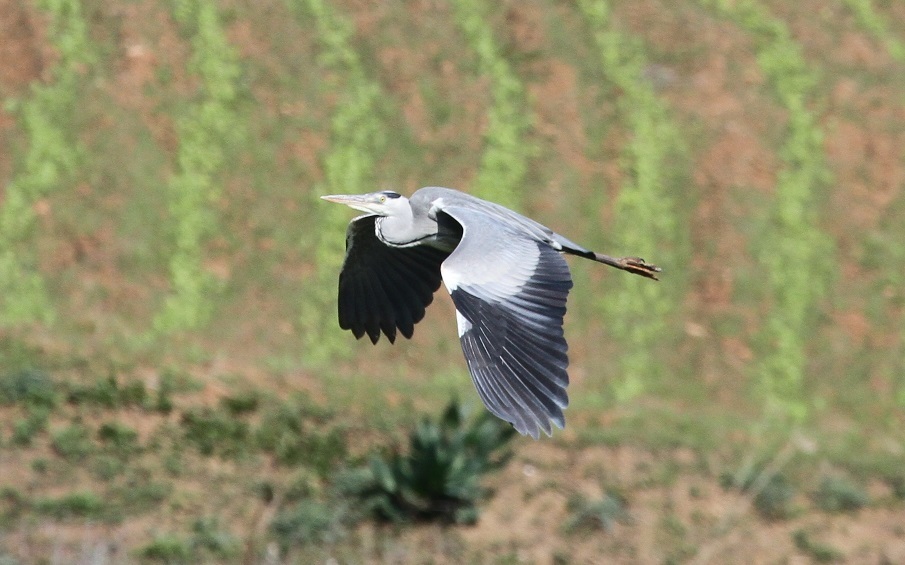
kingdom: Animalia
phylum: Chordata
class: Aves
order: Pelecaniformes
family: Ardeidae
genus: Ardea
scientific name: Ardea cinerea
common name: Grey heron
